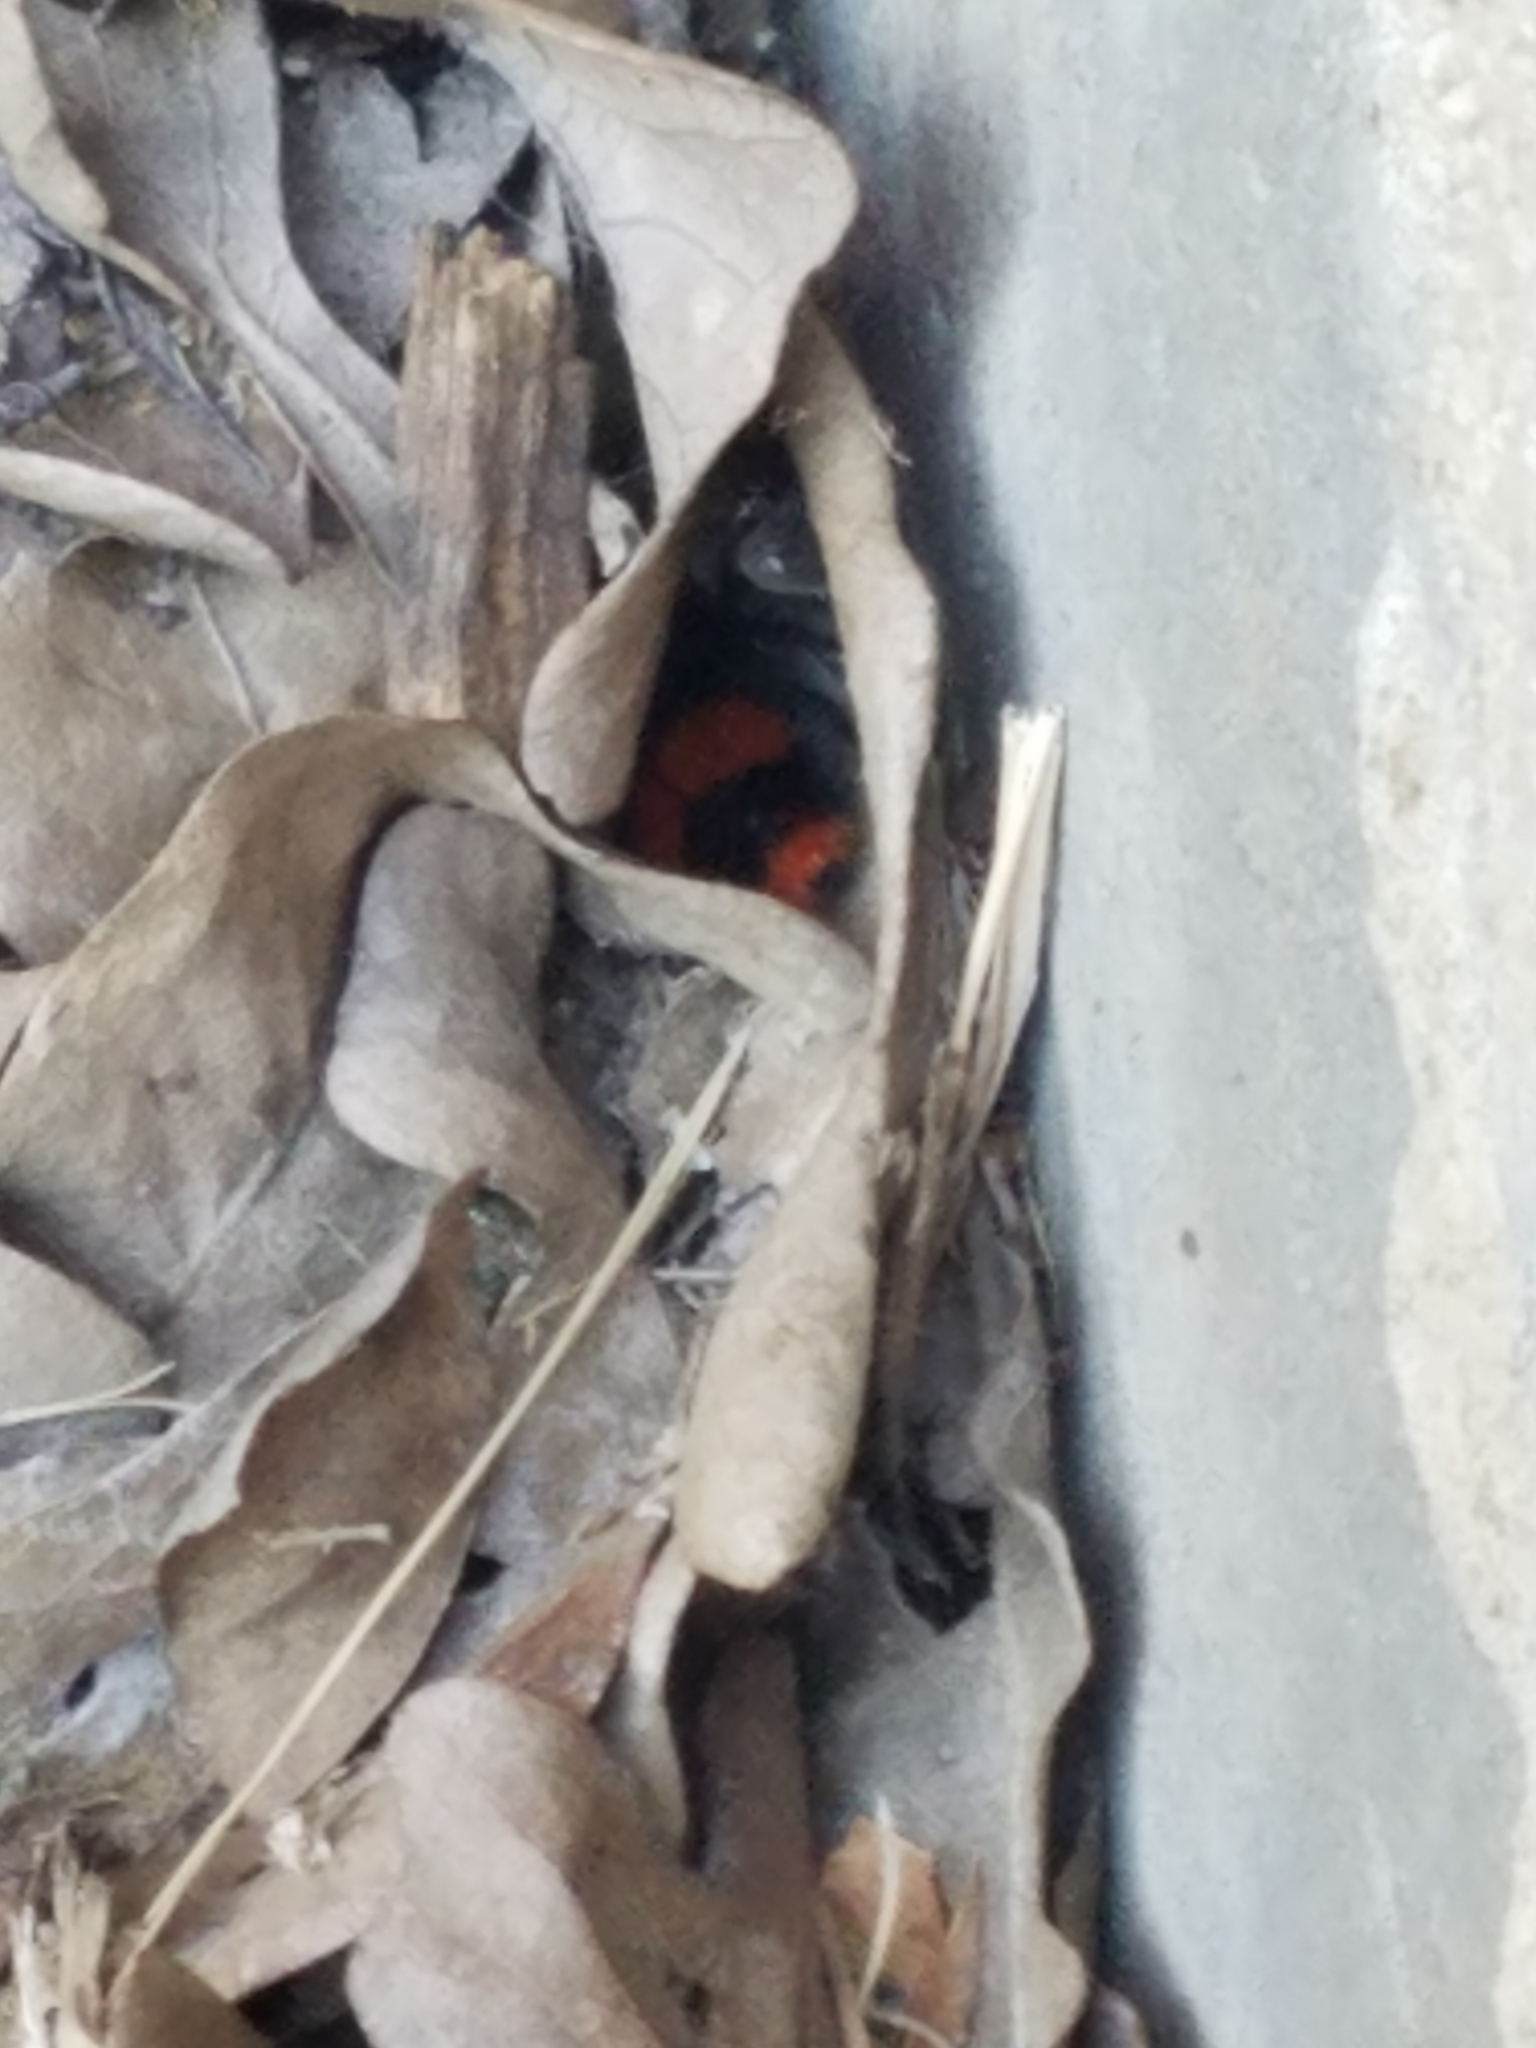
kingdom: Animalia
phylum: Arthropoda
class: Insecta
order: Hymenoptera
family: Mutillidae
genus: Dasymutilla
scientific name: Dasymutilla occidentalis
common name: Common eastern velvet ant
